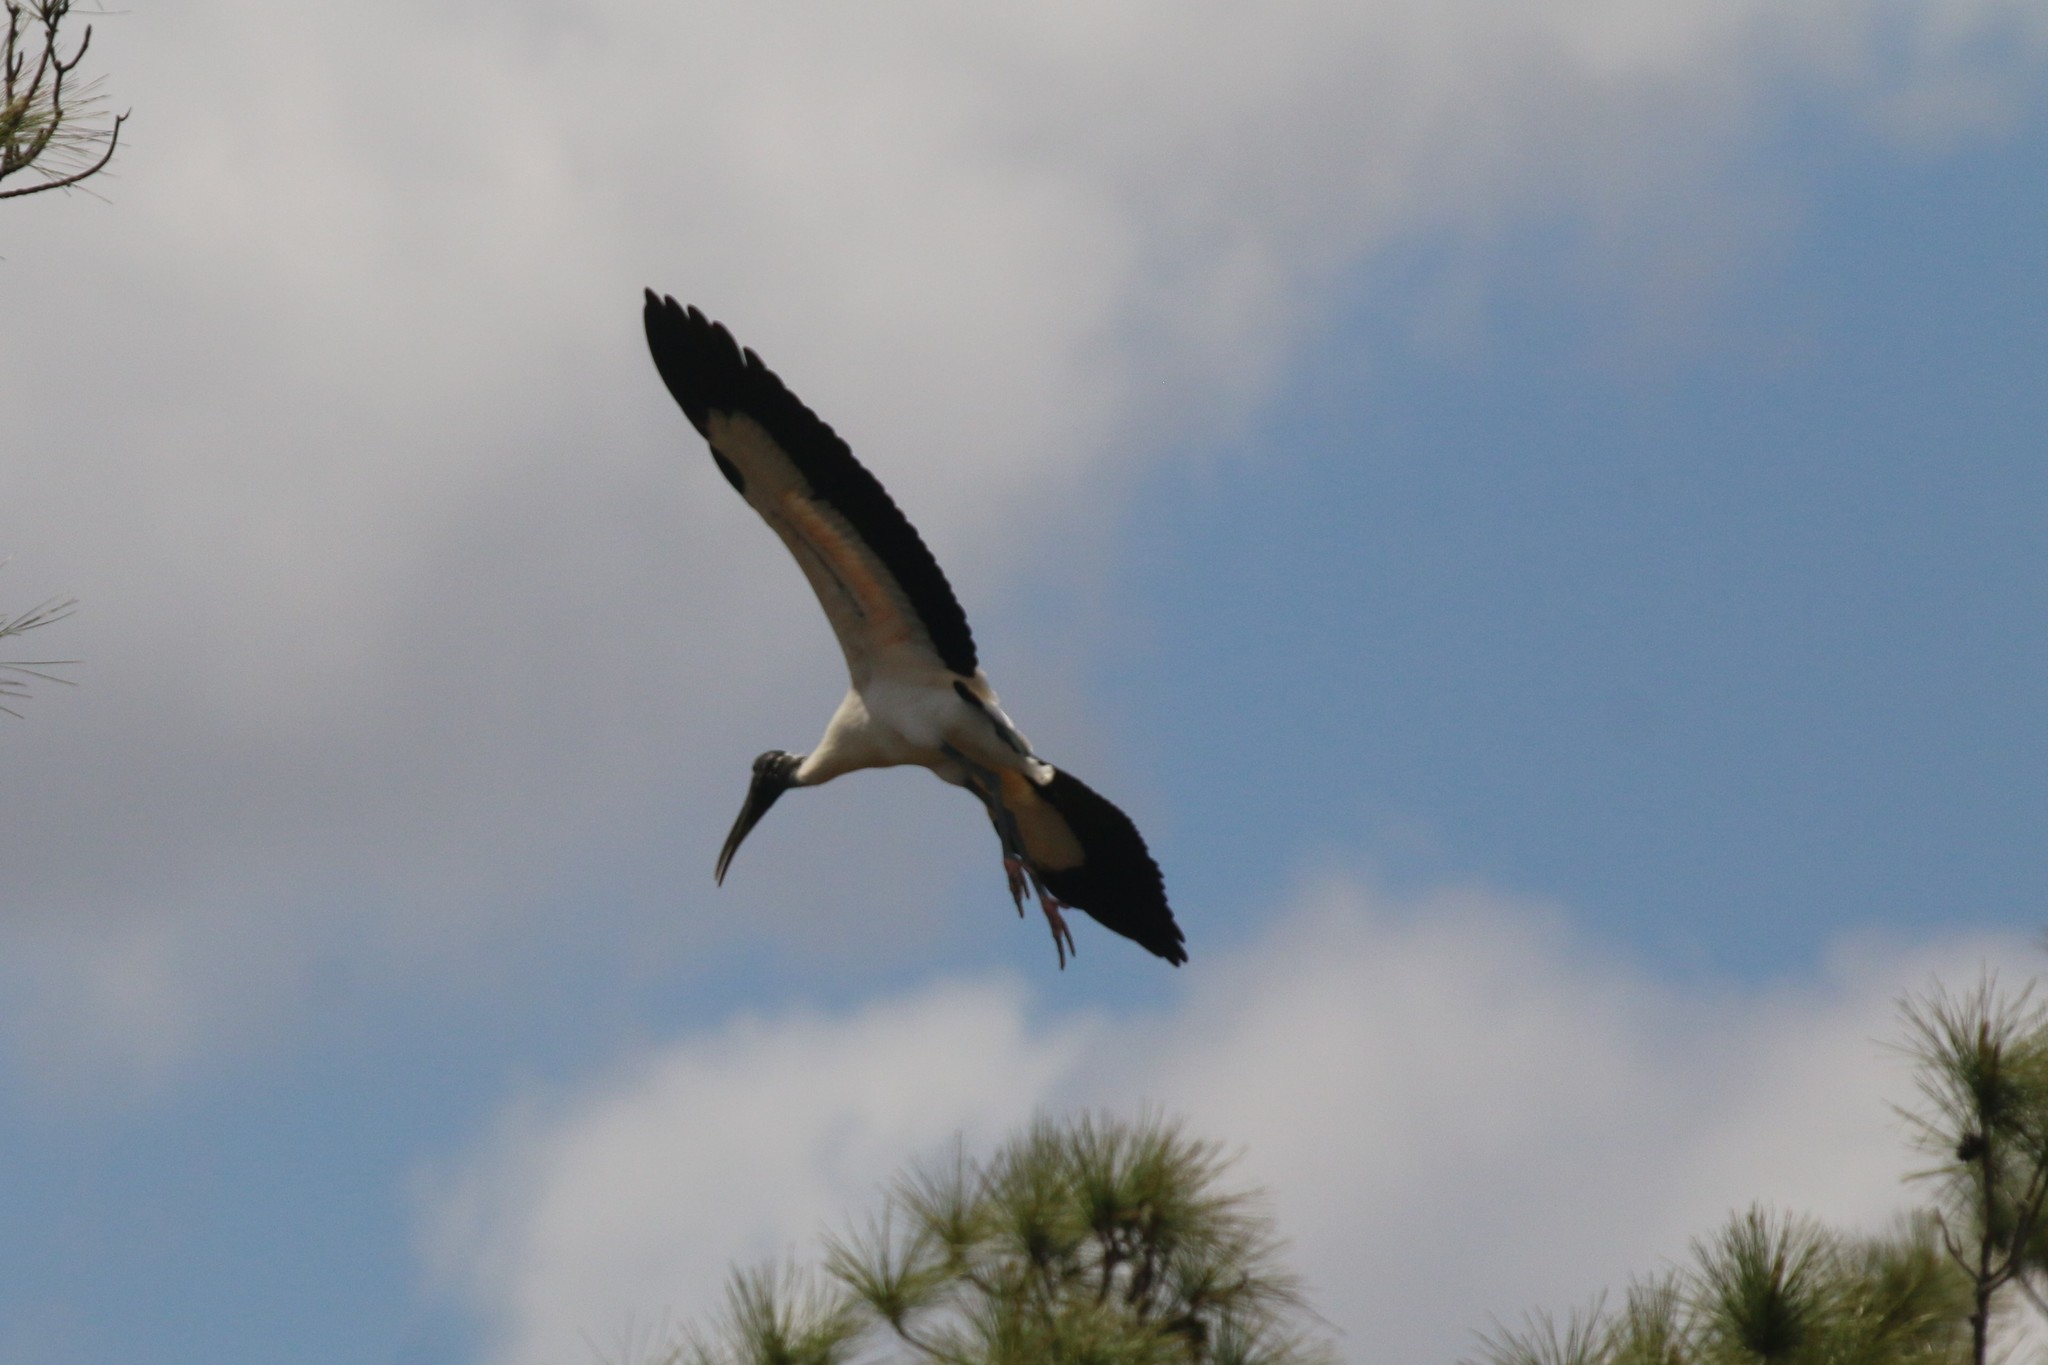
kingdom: Animalia
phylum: Chordata
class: Aves
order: Ciconiiformes
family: Ciconiidae
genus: Mycteria
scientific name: Mycteria americana
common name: Wood stork
